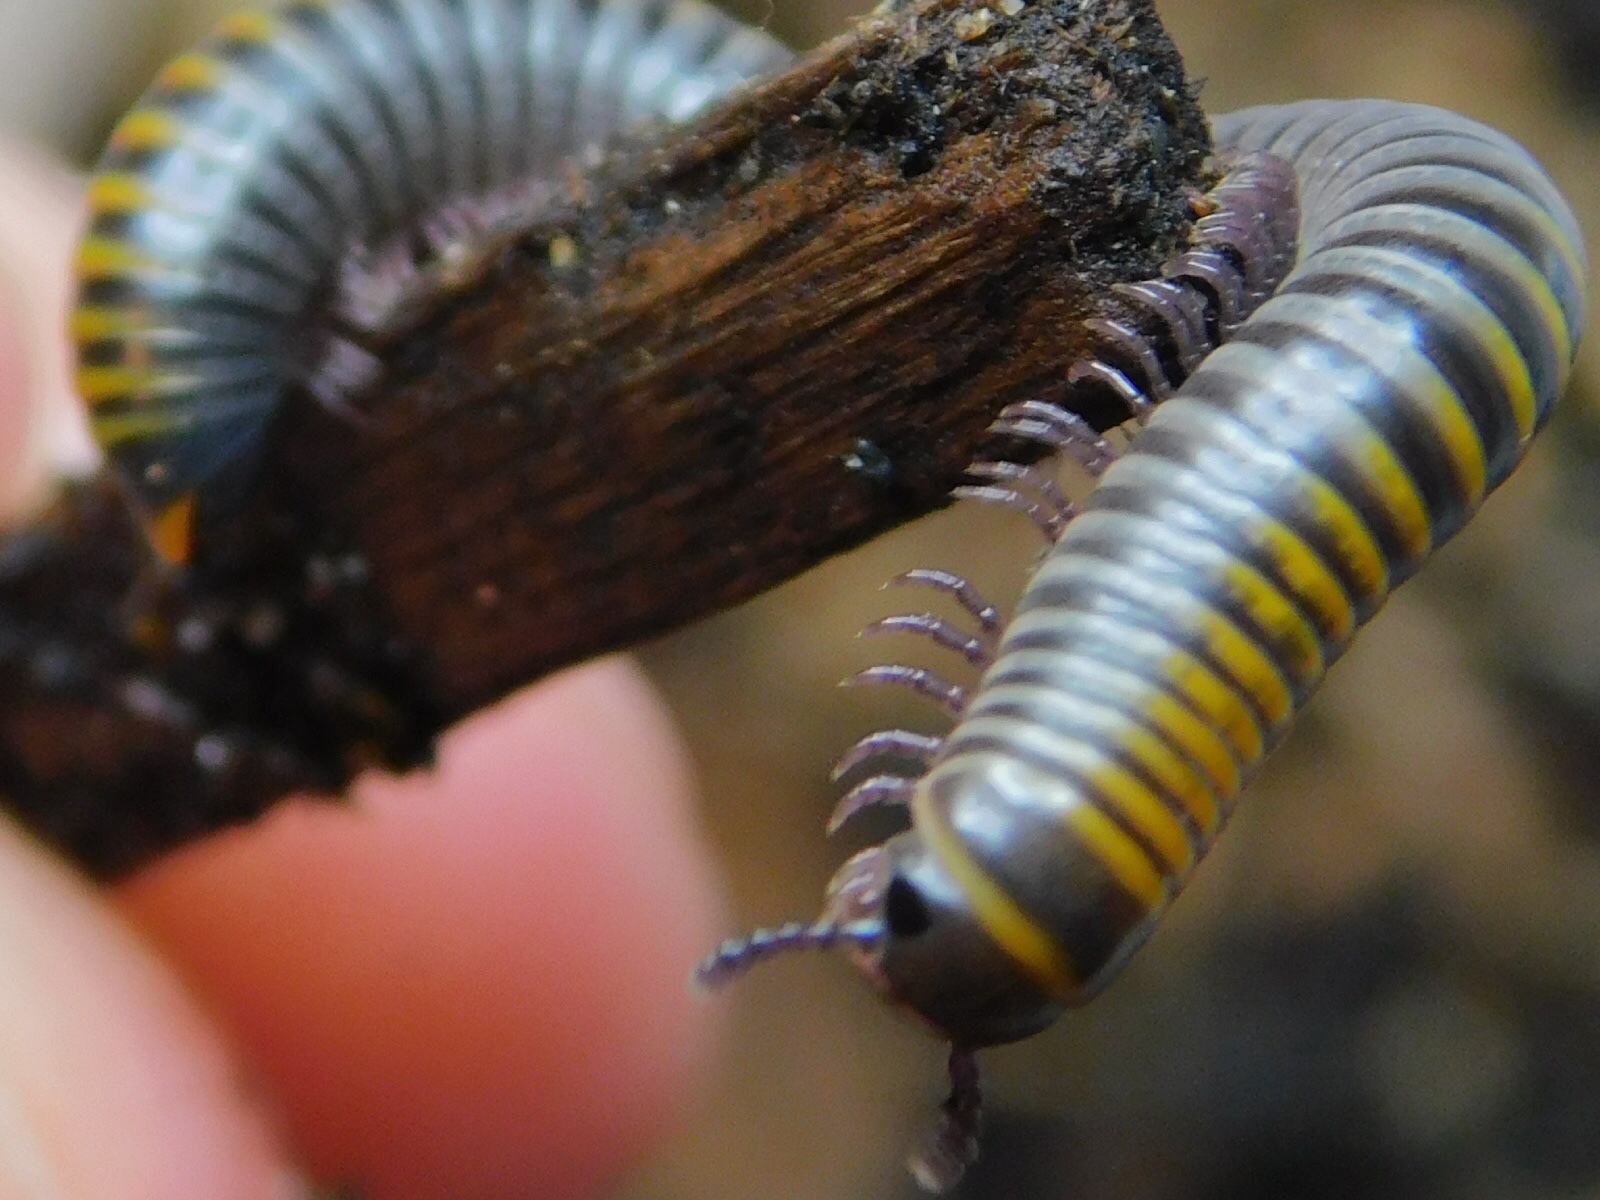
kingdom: Animalia
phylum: Arthropoda
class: Diplopoda
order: Spirobolida
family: Rhinocricidae
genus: Anadenobolus
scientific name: Anadenobolus monilicornis
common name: Caribbean millipede
